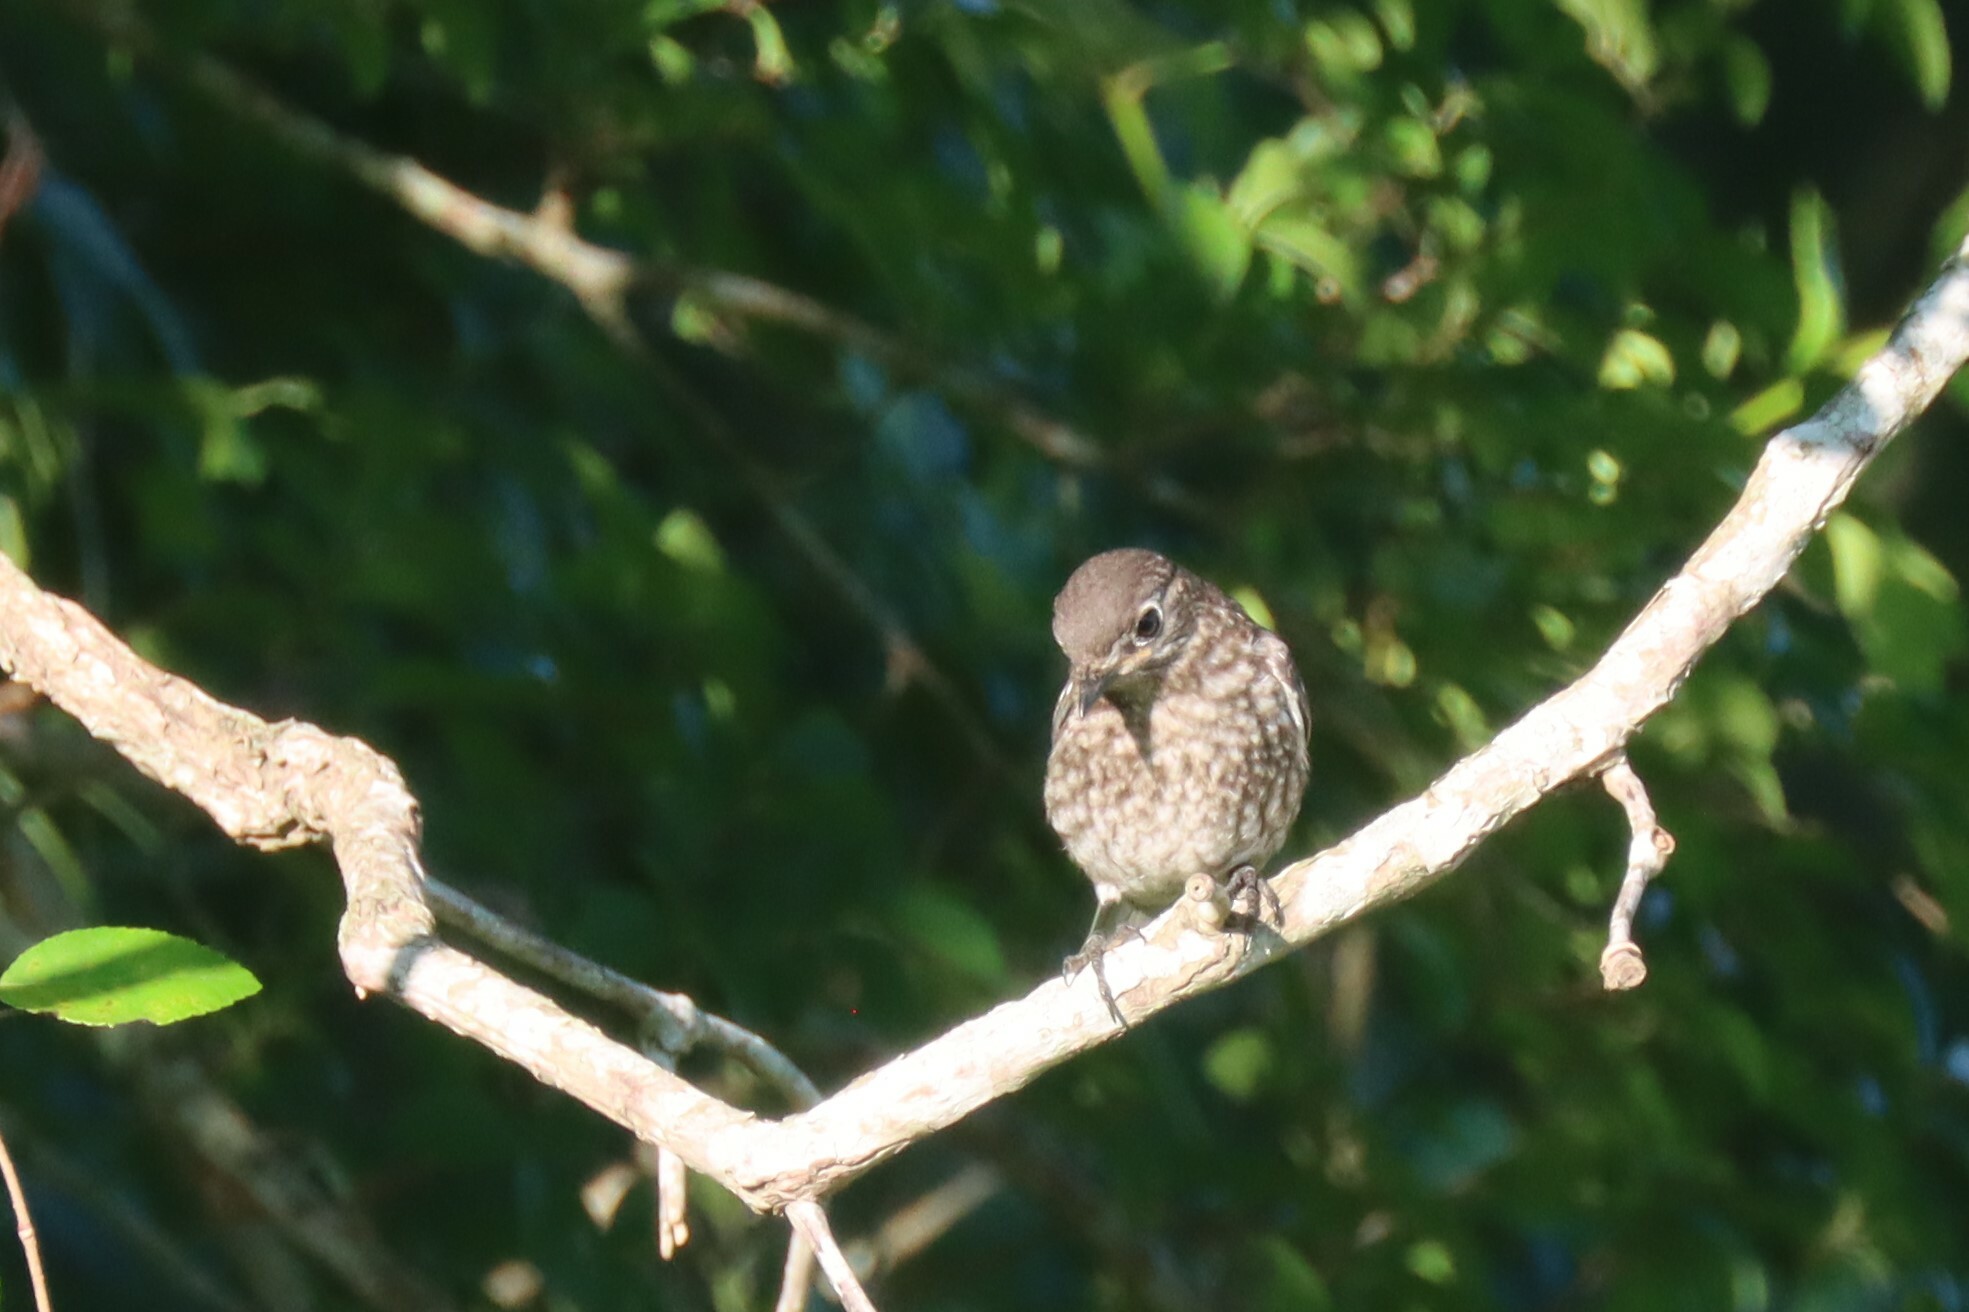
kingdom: Animalia
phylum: Chordata
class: Aves
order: Passeriformes
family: Turdidae
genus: Sialia
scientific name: Sialia sialis
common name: Eastern bluebird
